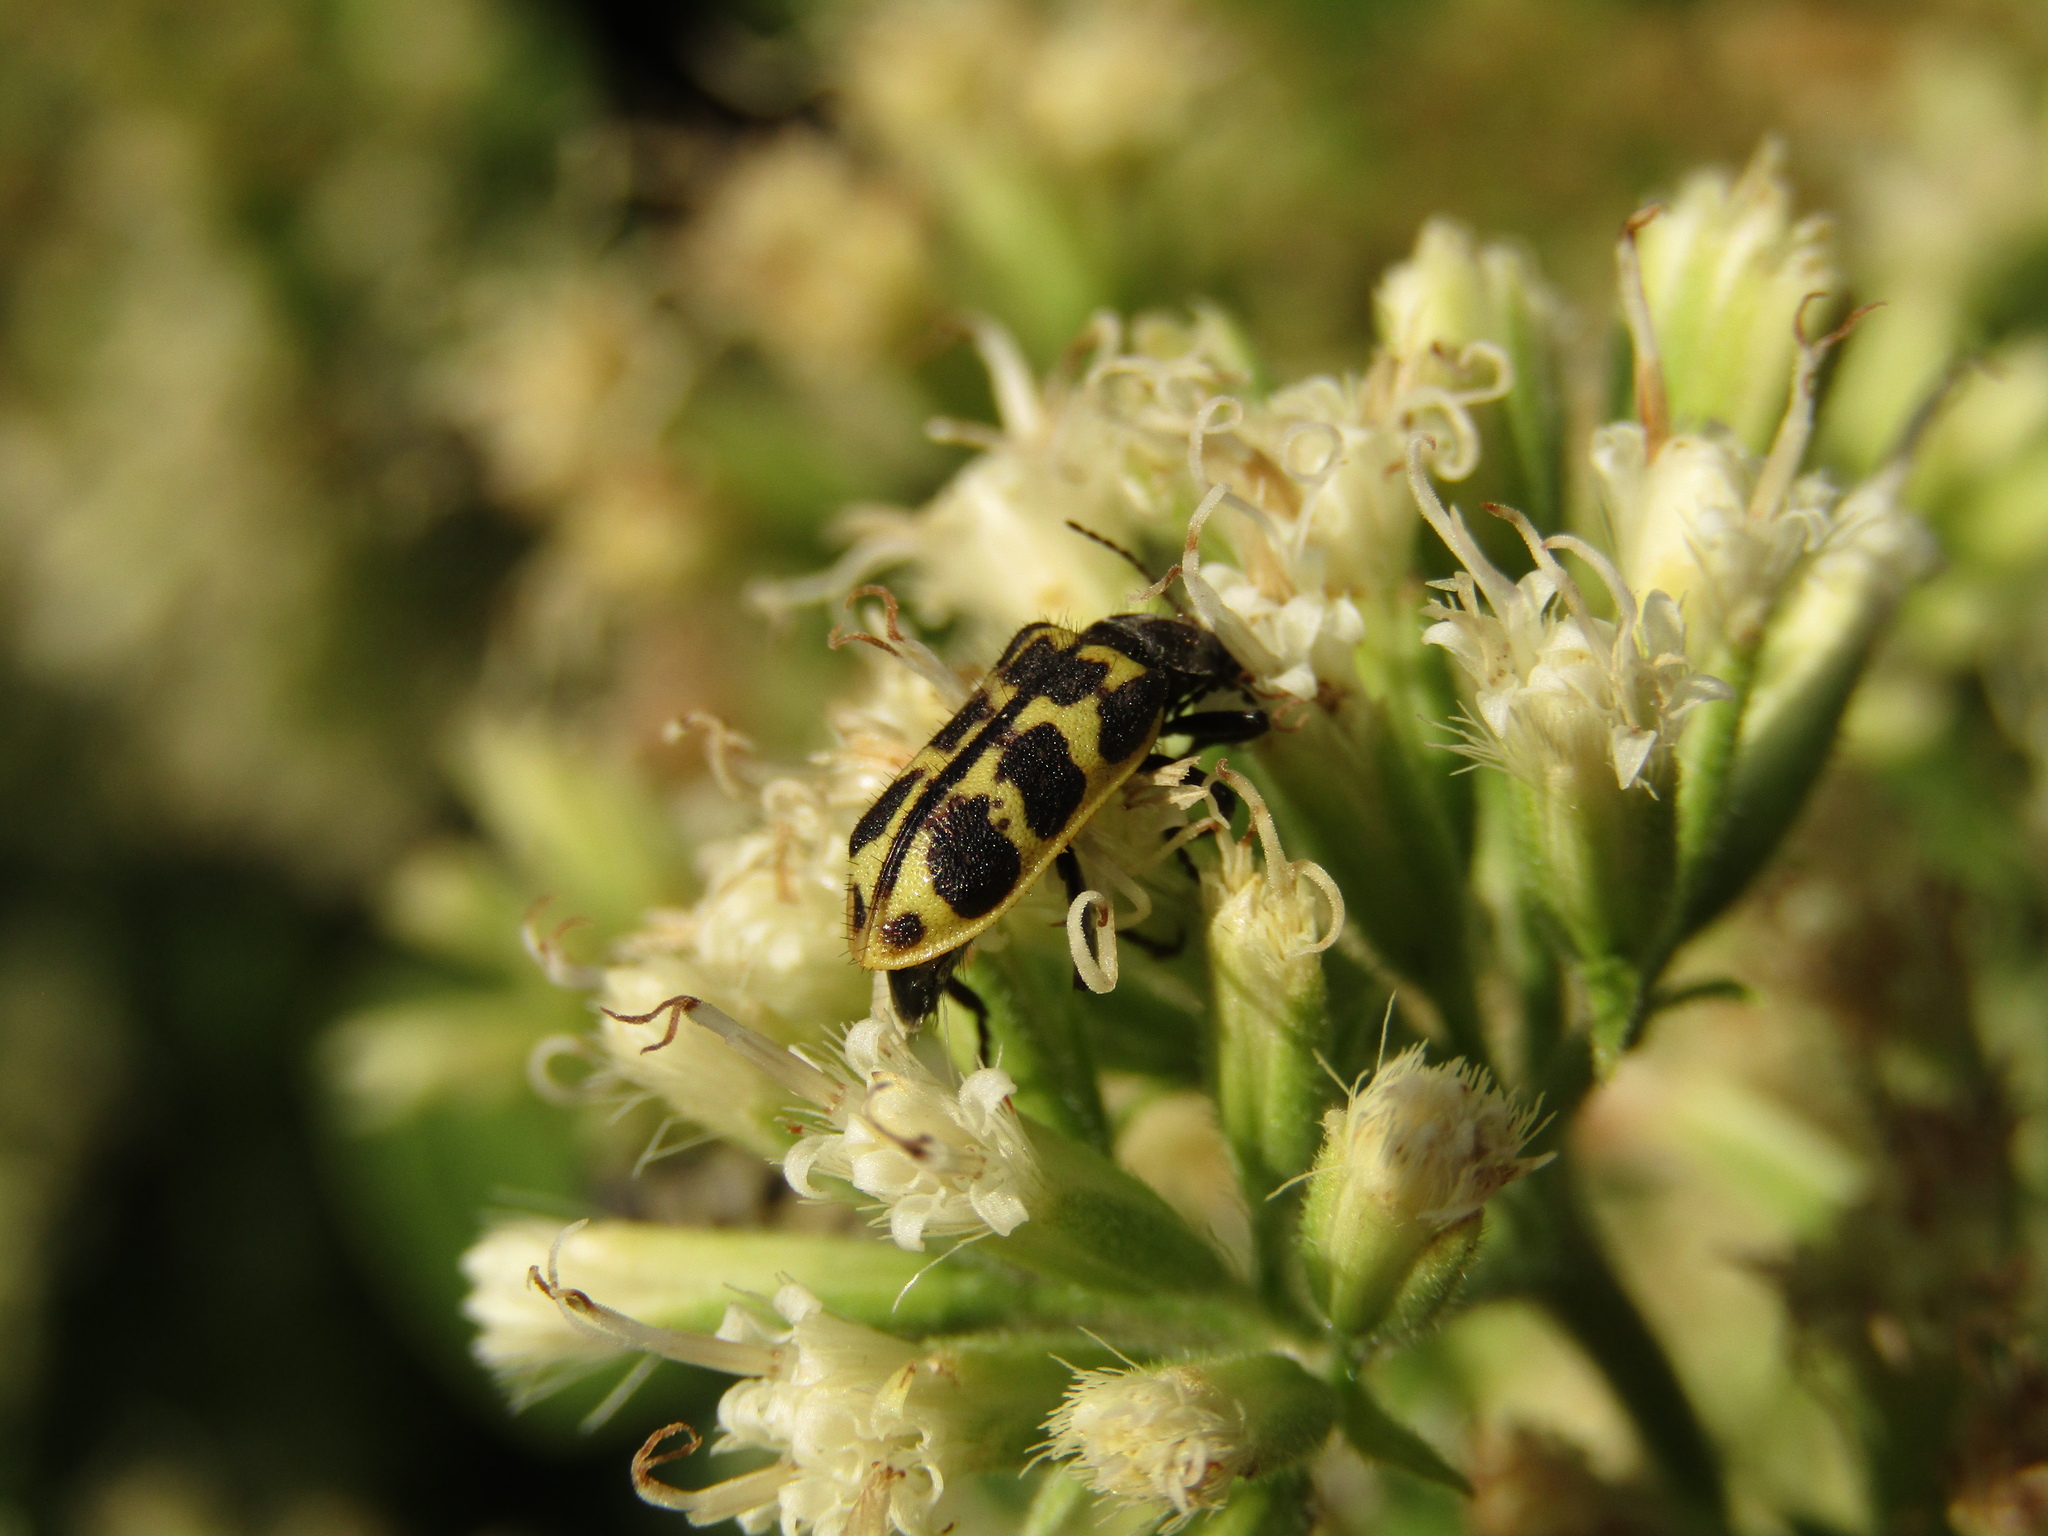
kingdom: Animalia
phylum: Arthropoda
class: Insecta
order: Coleoptera
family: Melyridae
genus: Astylus
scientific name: Astylus atromaculatus
